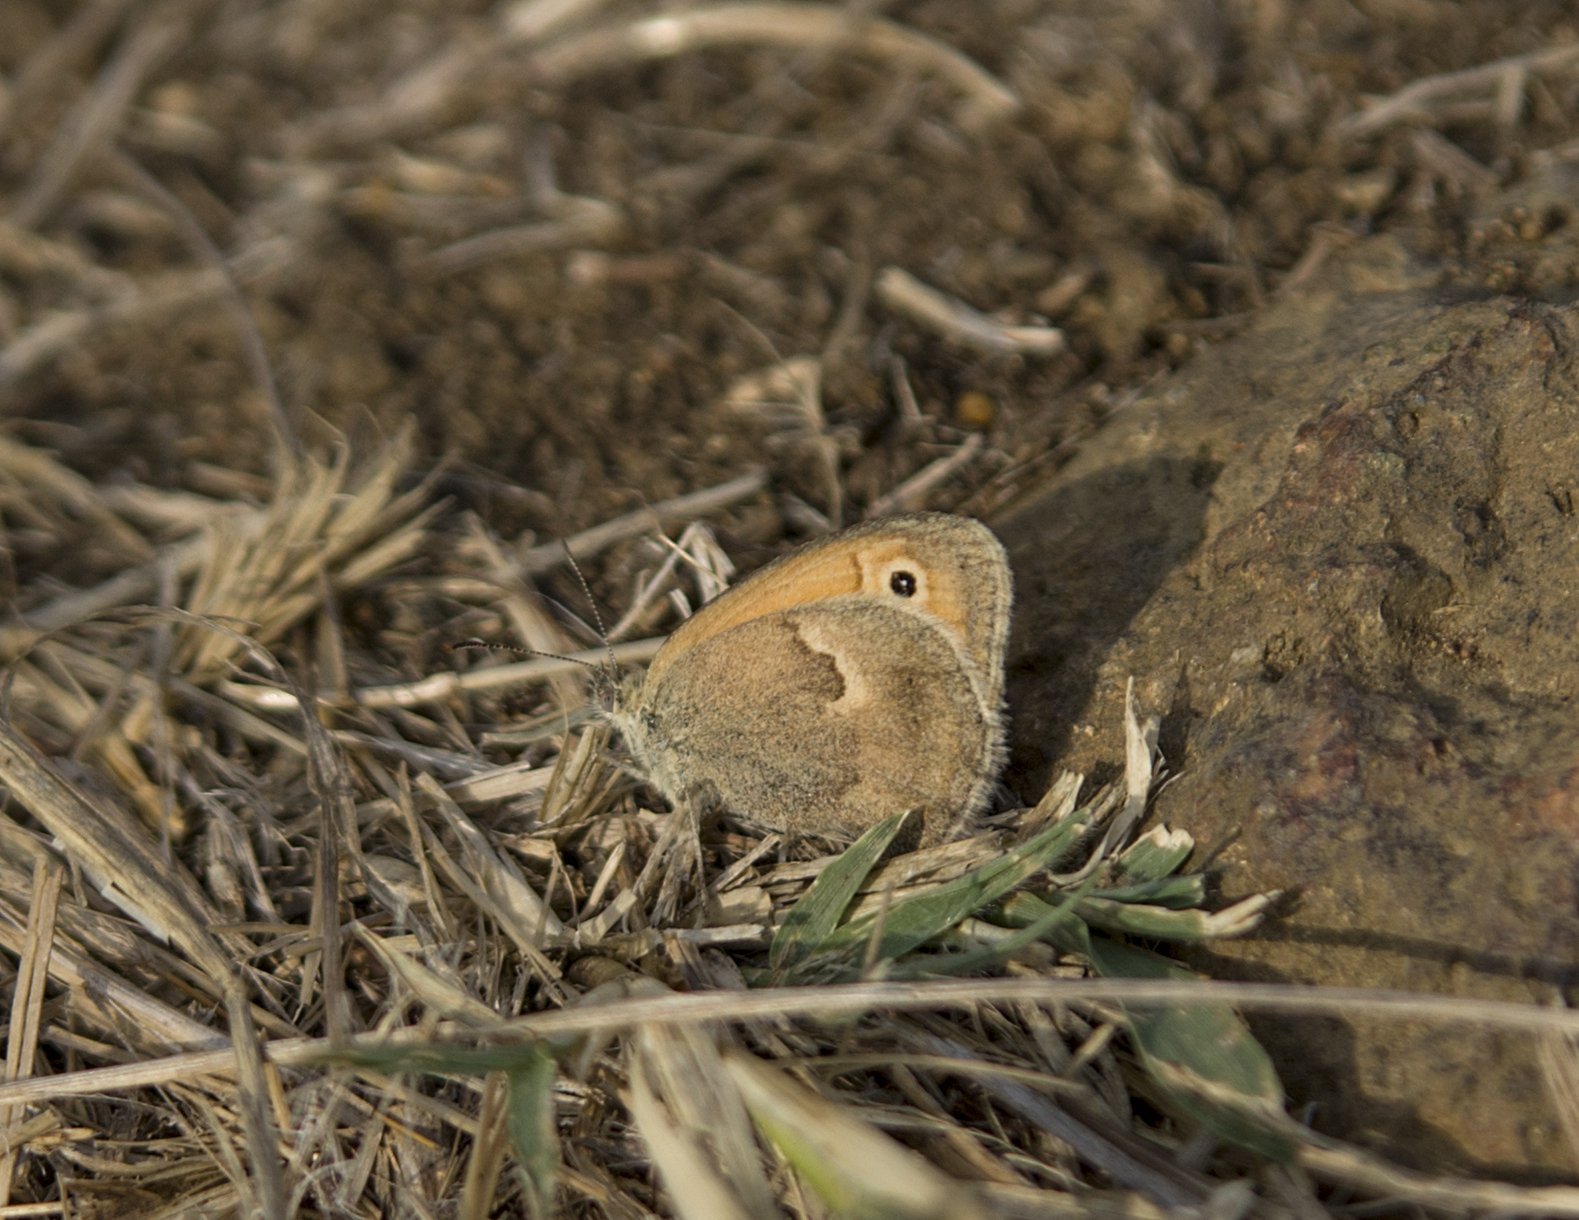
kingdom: Animalia
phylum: Arthropoda
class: Insecta
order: Lepidoptera
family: Nymphalidae
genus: Coenonympha
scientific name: Coenonympha pamphilus
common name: Small heath
